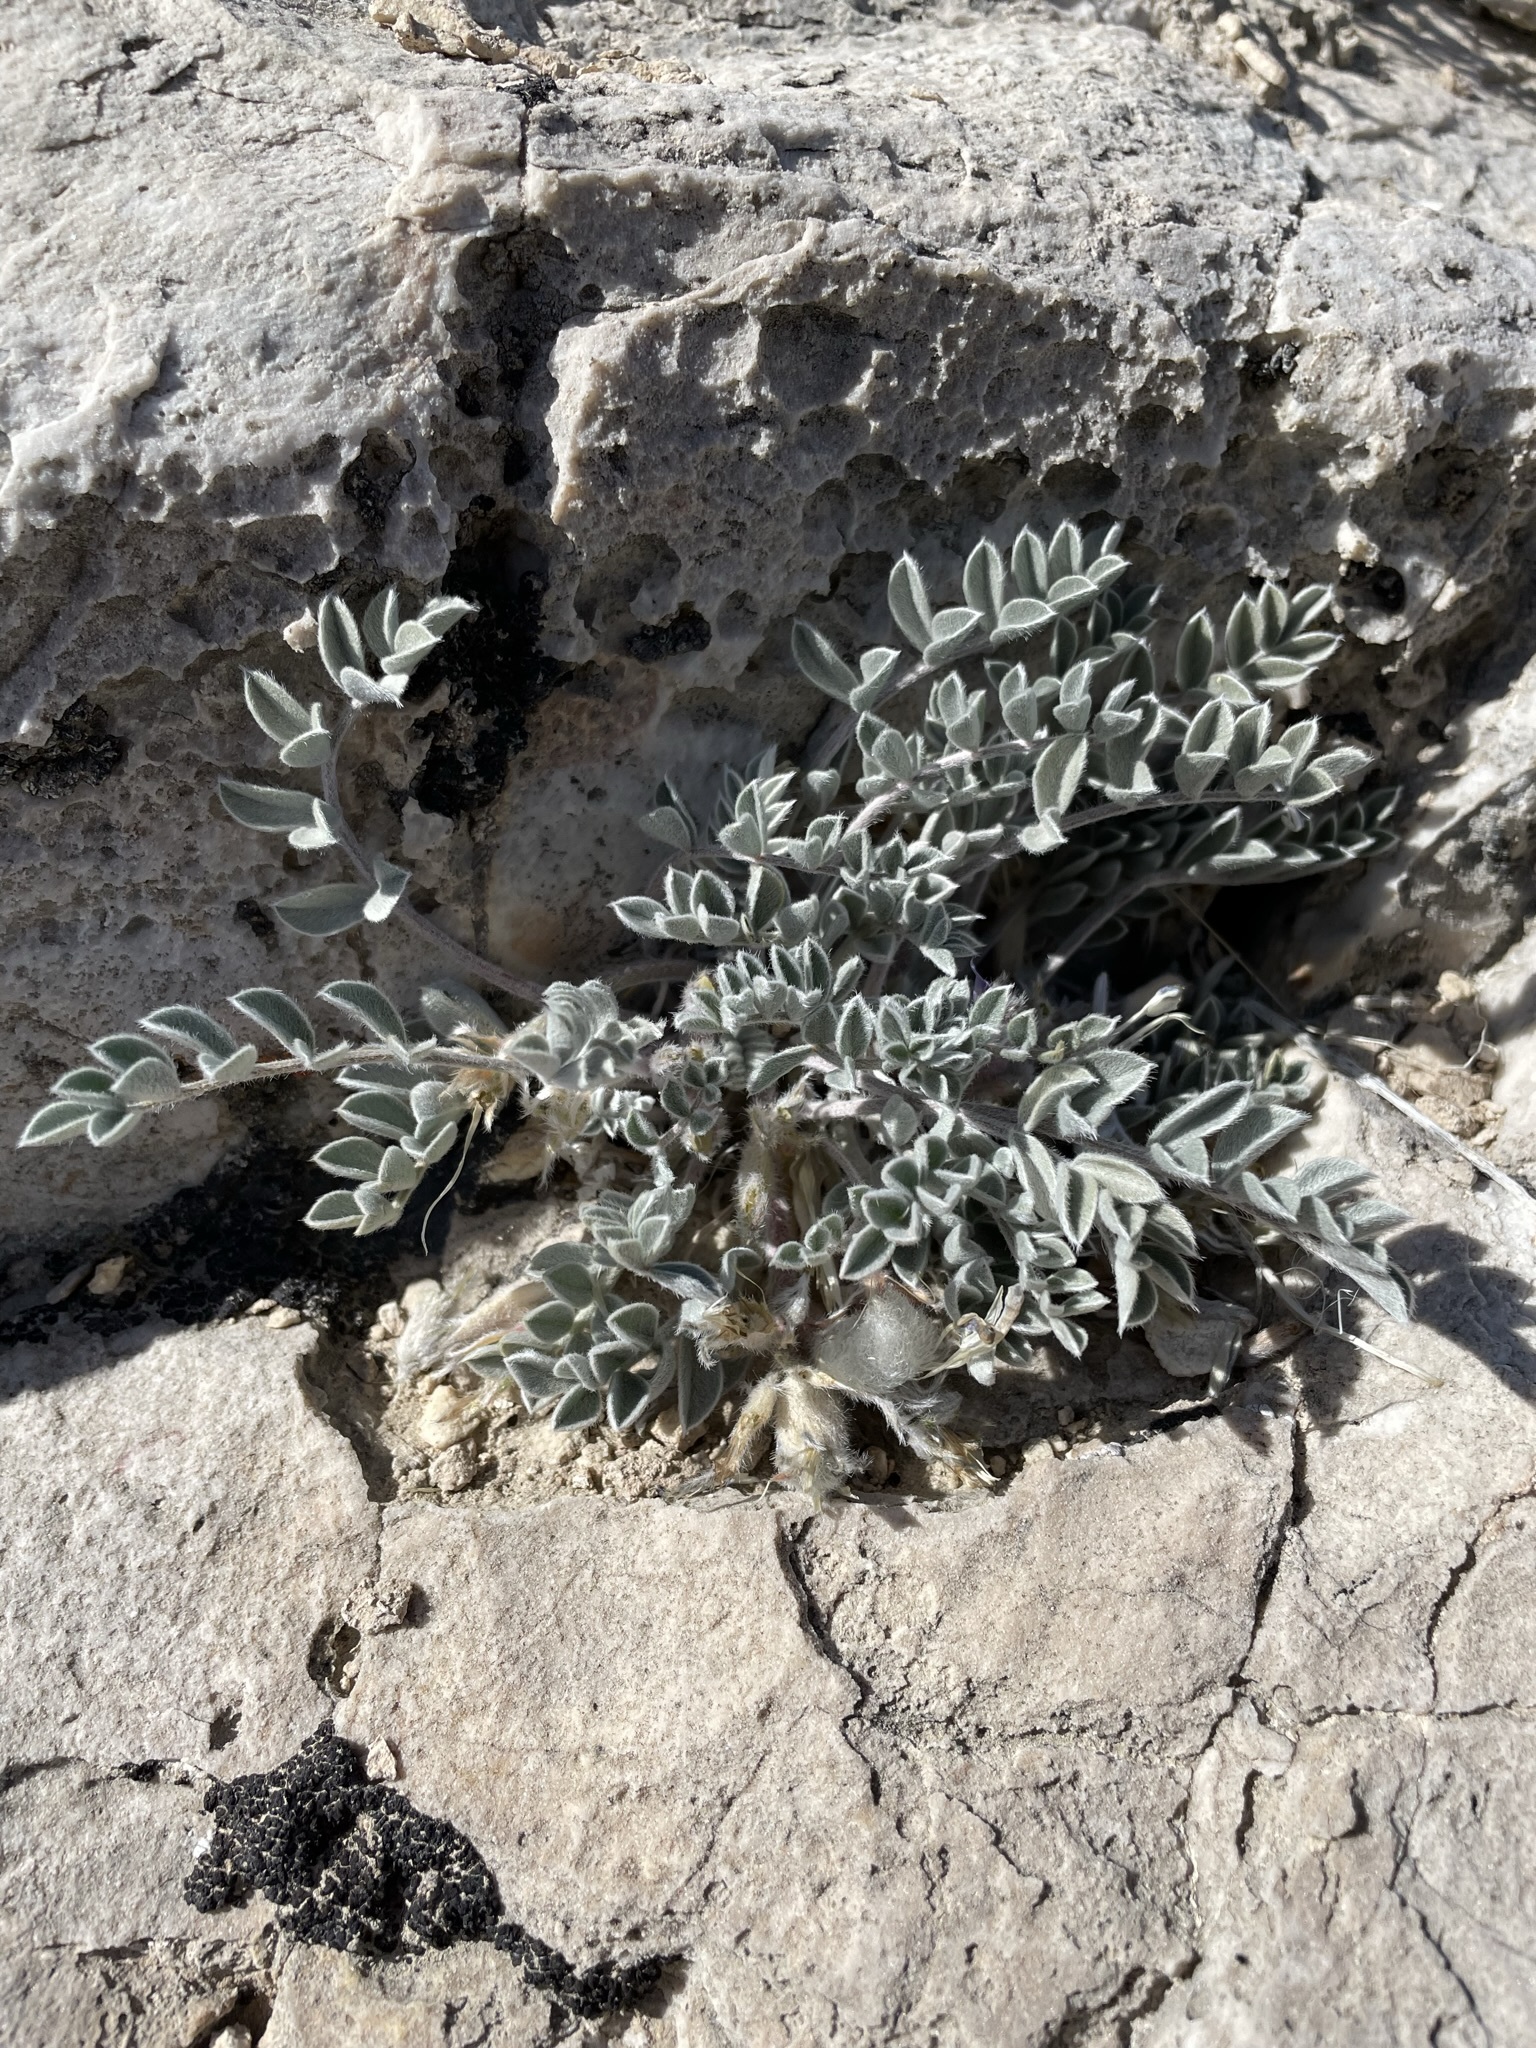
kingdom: Plantae
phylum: Tracheophyta
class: Magnoliopsida
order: Fabales
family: Fabaceae
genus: Astragalus
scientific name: Astragalus newberryi
